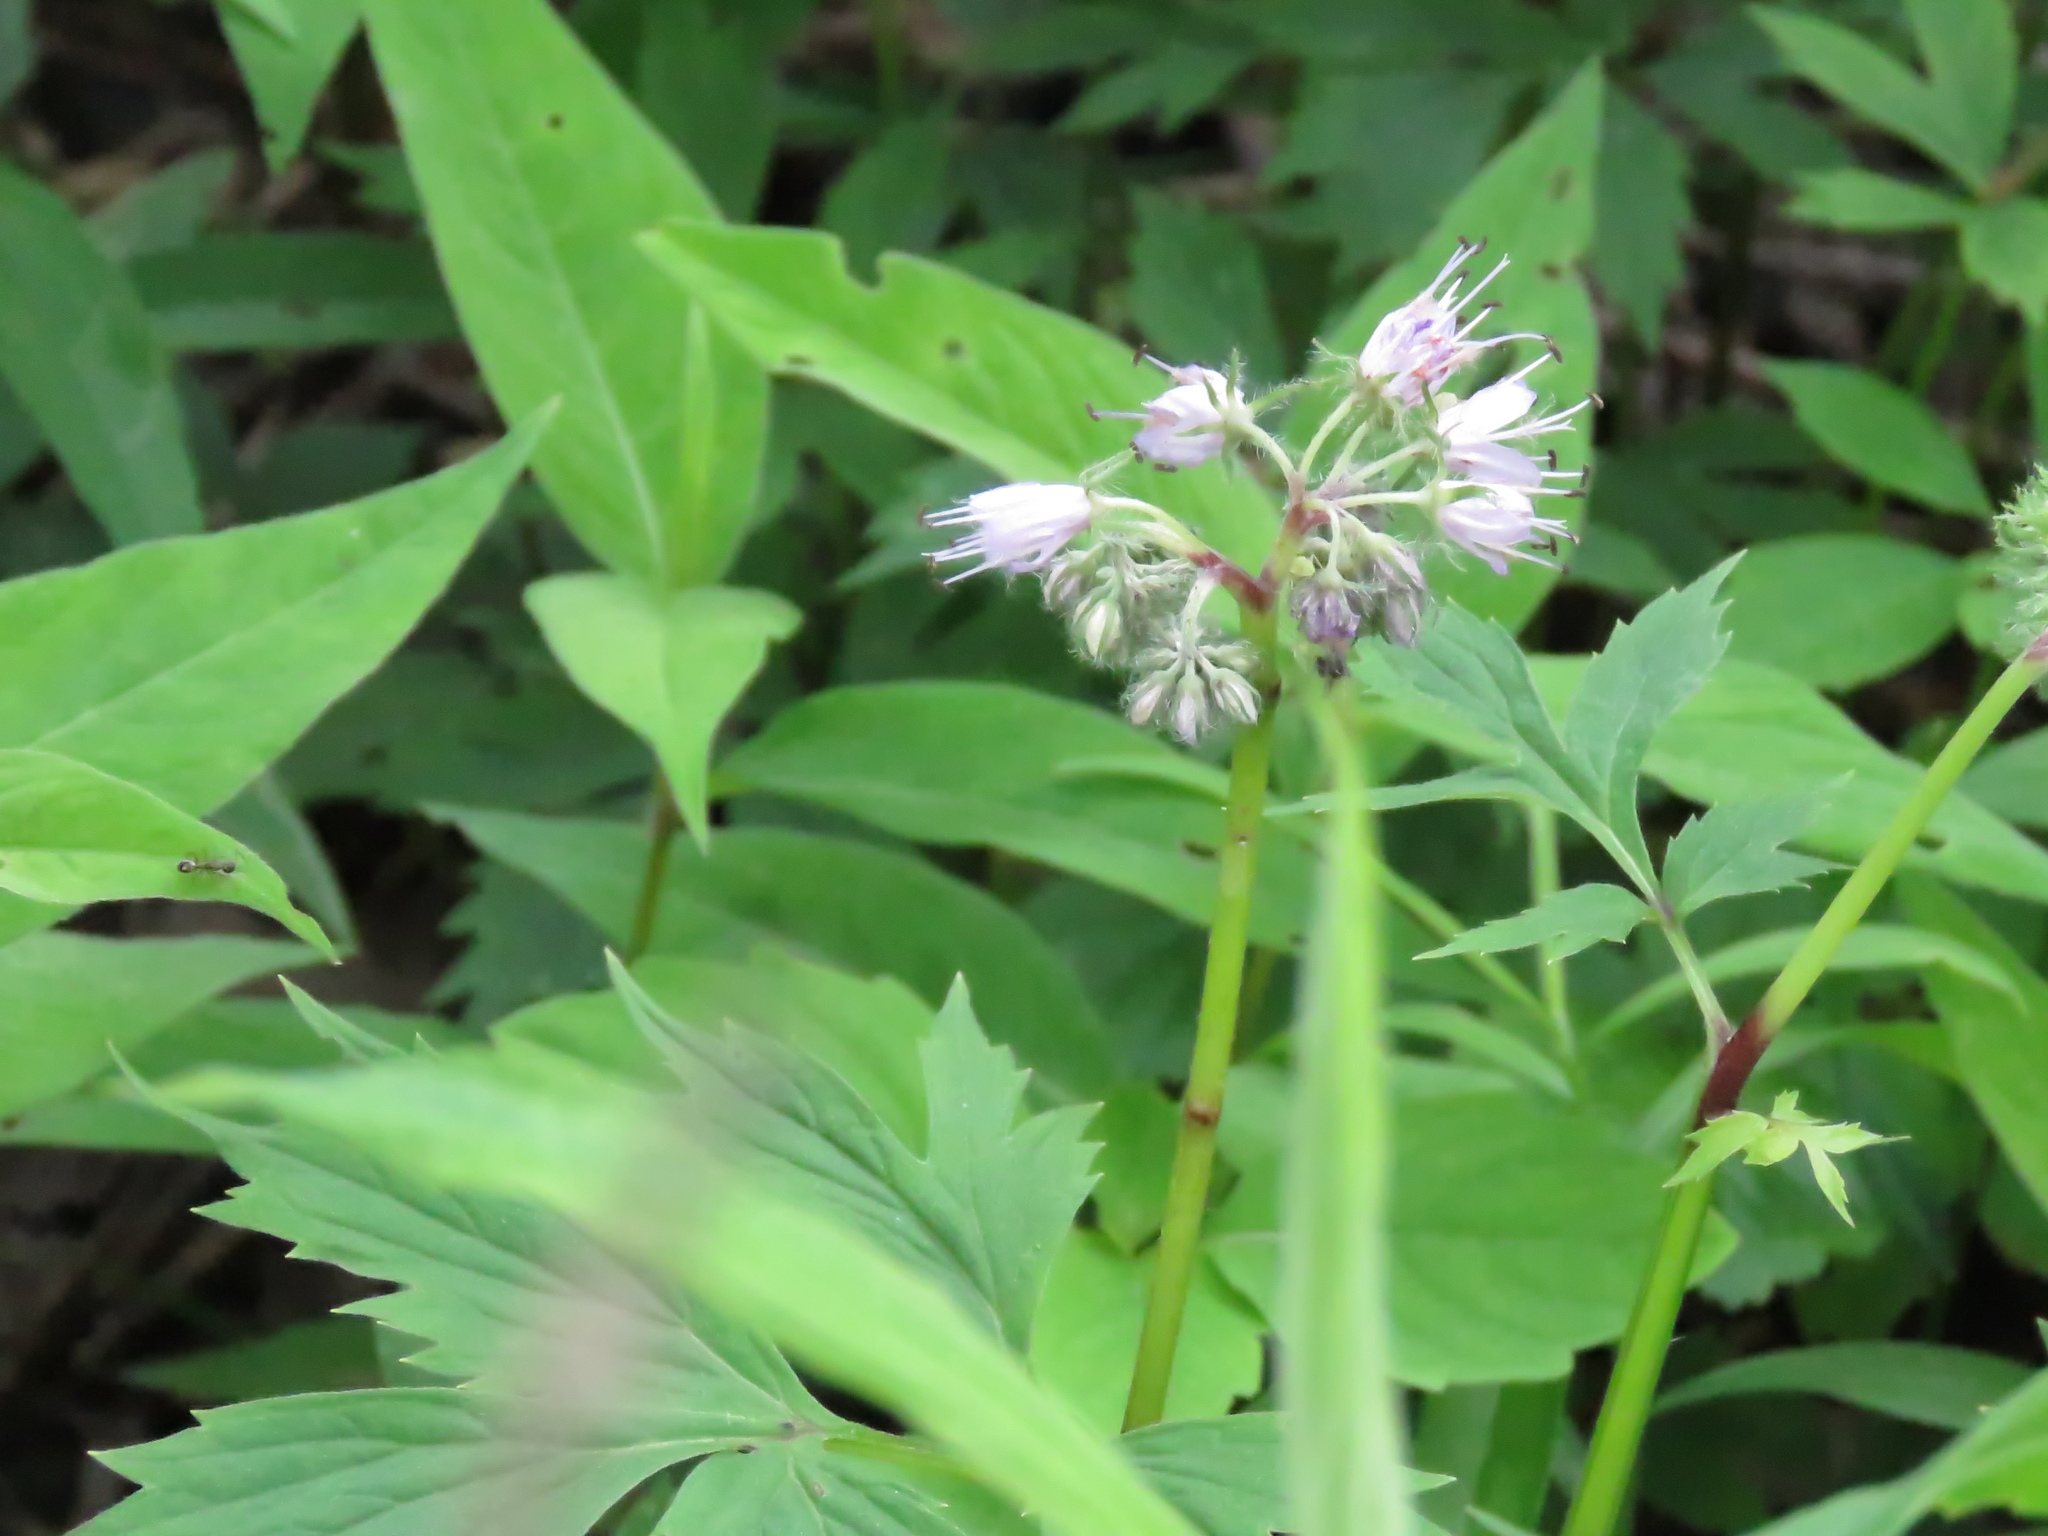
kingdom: Plantae
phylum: Tracheophyta
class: Magnoliopsida
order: Boraginales
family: Hydrophyllaceae
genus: Hydrophyllum
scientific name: Hydrophyllum virginianum
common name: Virginia waterleaf
